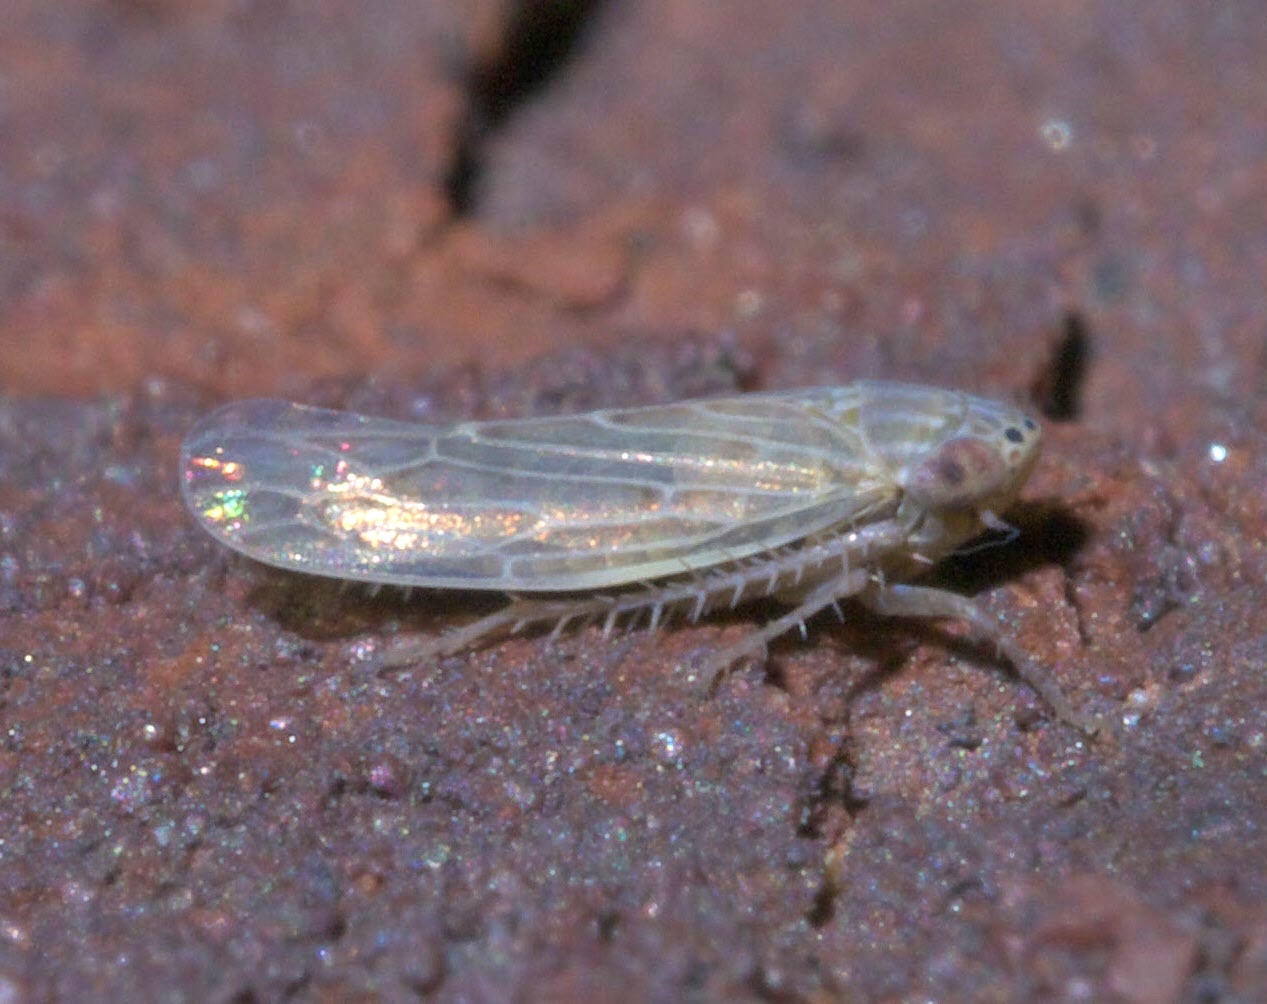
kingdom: Animalia
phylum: Arthropoda
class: Insecta
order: Hemiptera
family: Cicadellidae
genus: Graminella
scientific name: Graminella sonora
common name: Lesser lawn leafhopper
